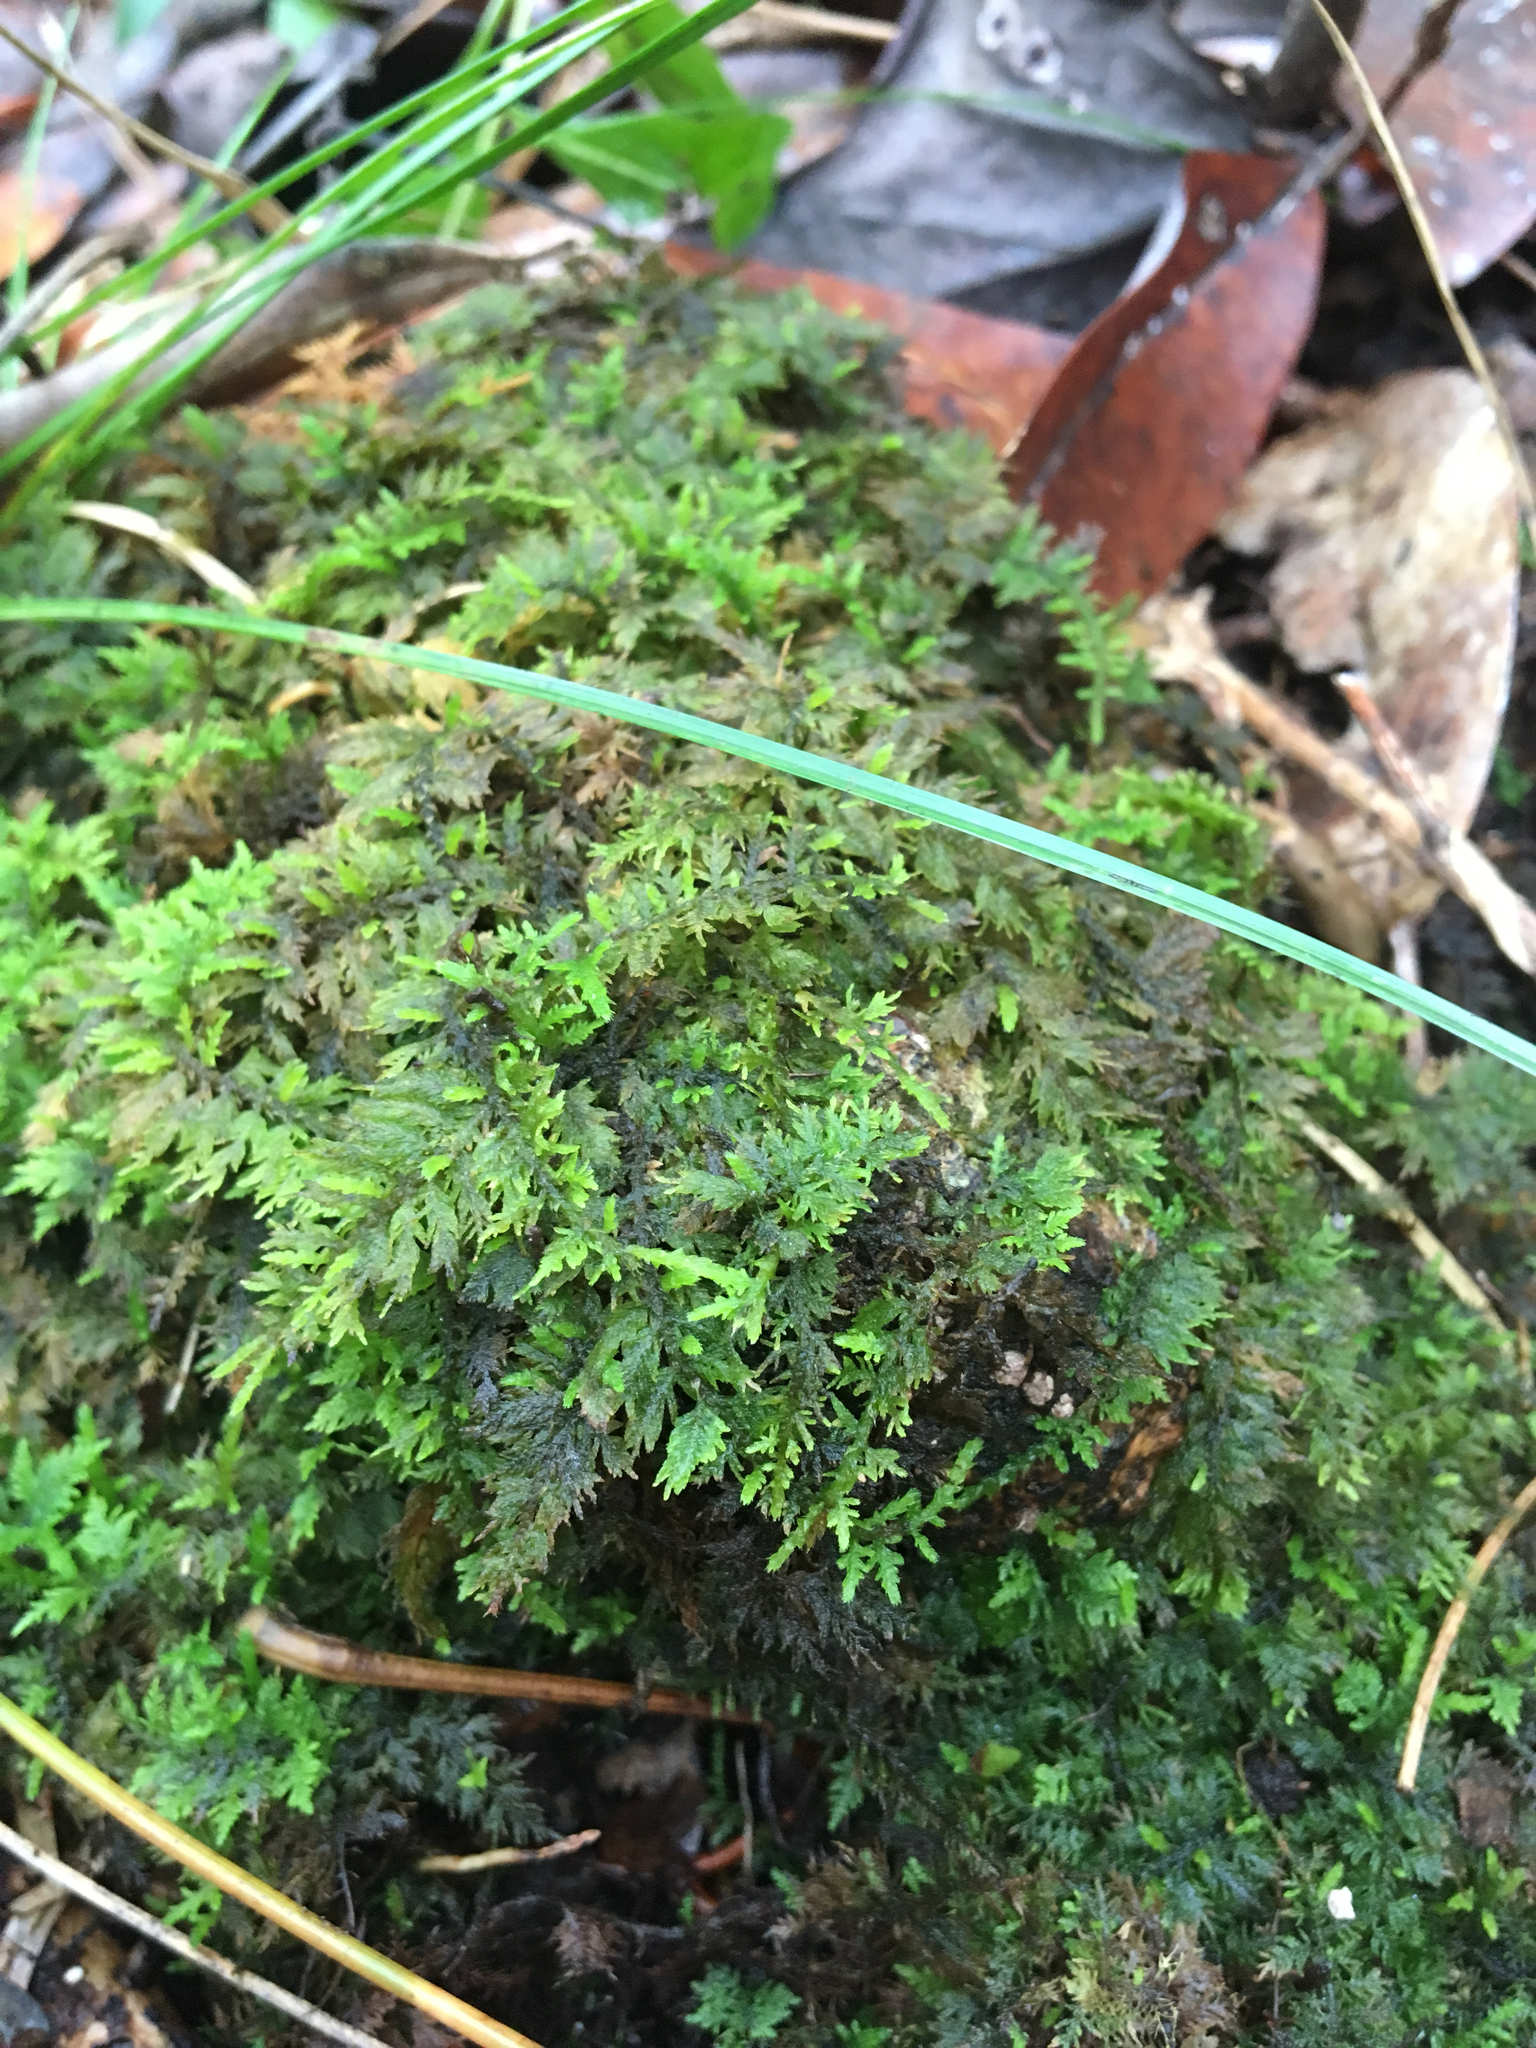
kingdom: Plantae
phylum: Bryophyta
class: Bryopsida
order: Hypnales
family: Thuidiaceae
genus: Thuidium
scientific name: Thuidium delicatulum
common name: Delicate fern moss
